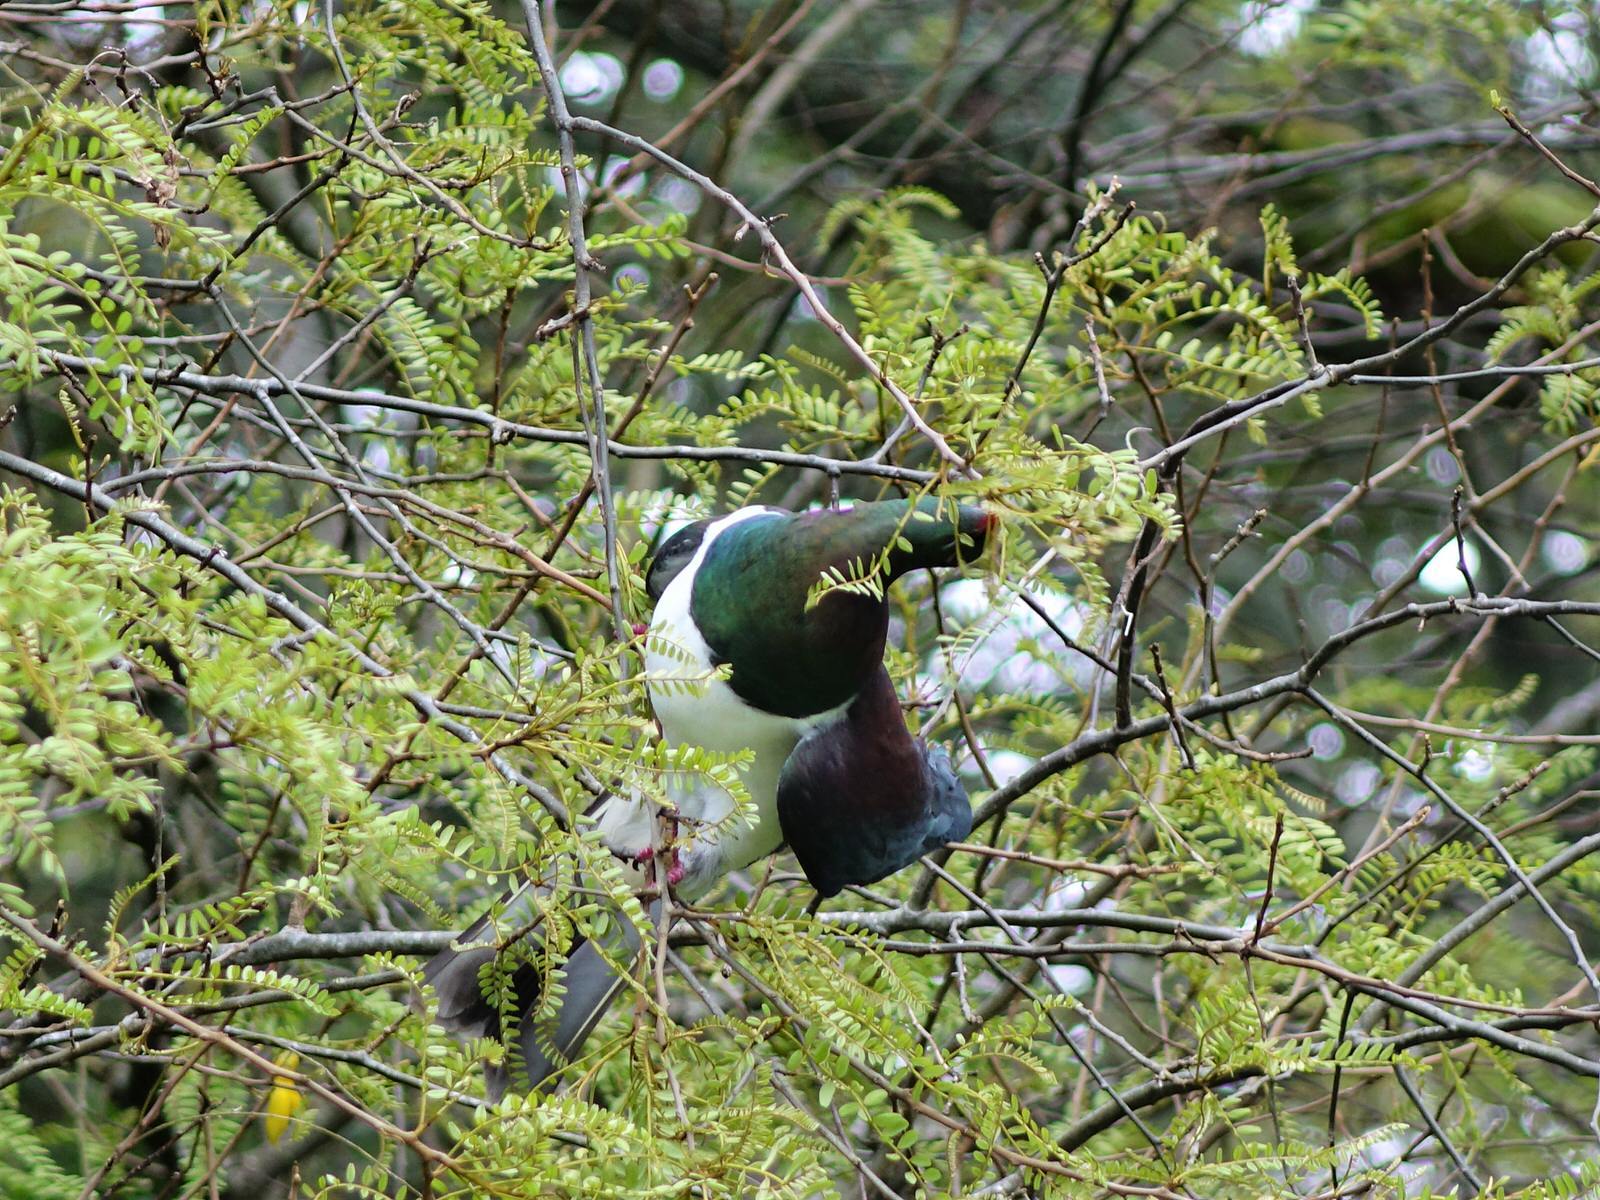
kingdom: Animalia
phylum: Chordata
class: Aves
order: Columbiformes
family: Columbidae
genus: Hemiphaga
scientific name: Hemiphaga novaeseelandiae
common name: New zealand pigeon
